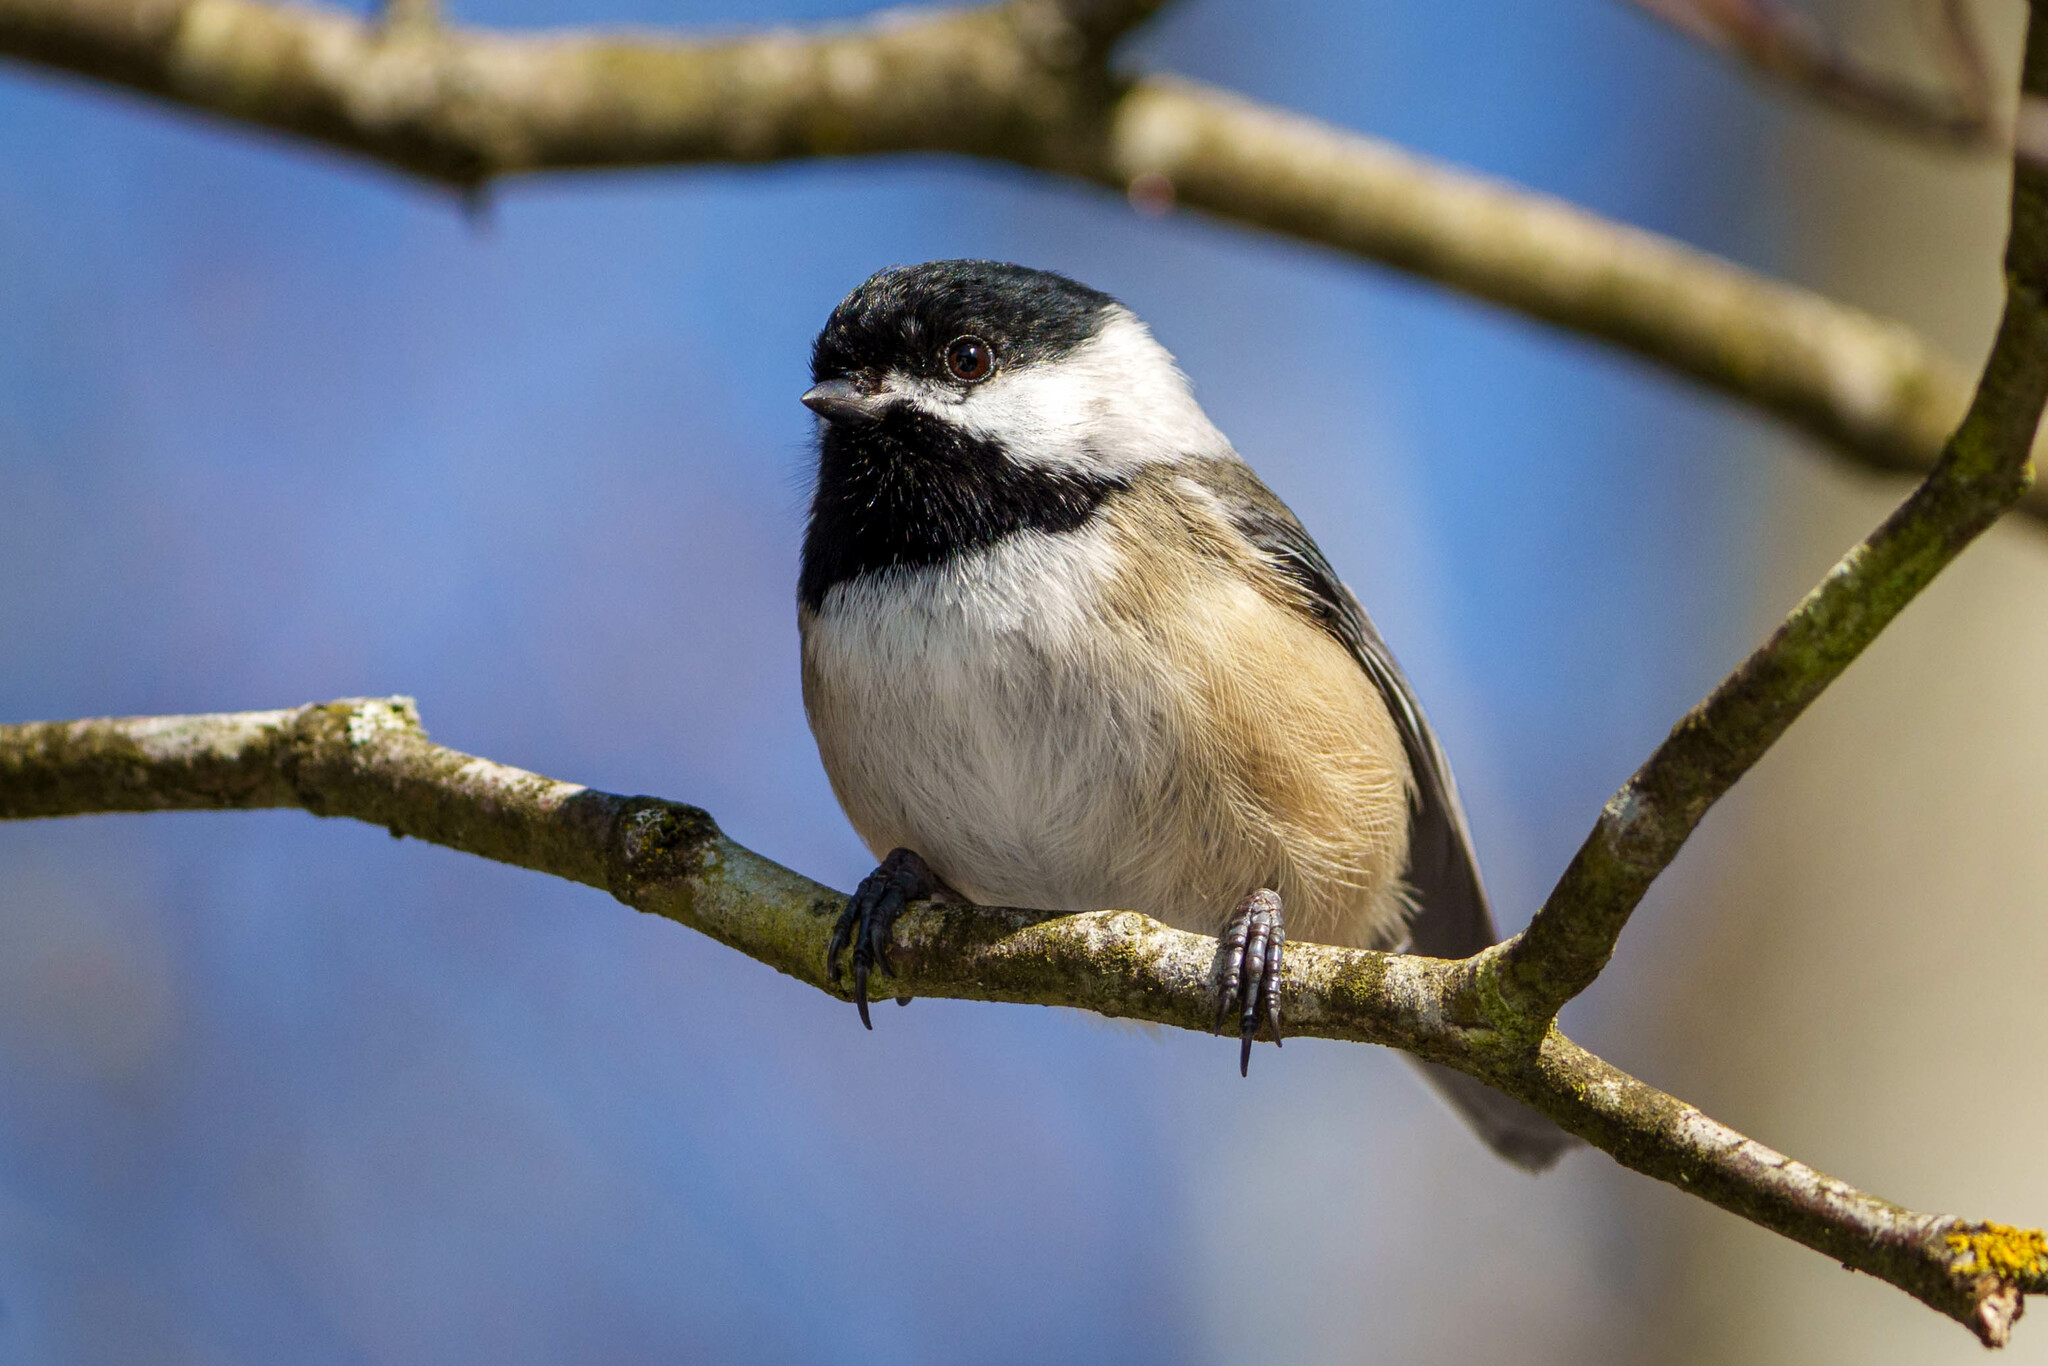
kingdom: Animalia
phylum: Chordata
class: Aves
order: Passeriformes
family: Paridae
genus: Poecile
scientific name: Poecile atricapillus
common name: Black-capped chickadee
